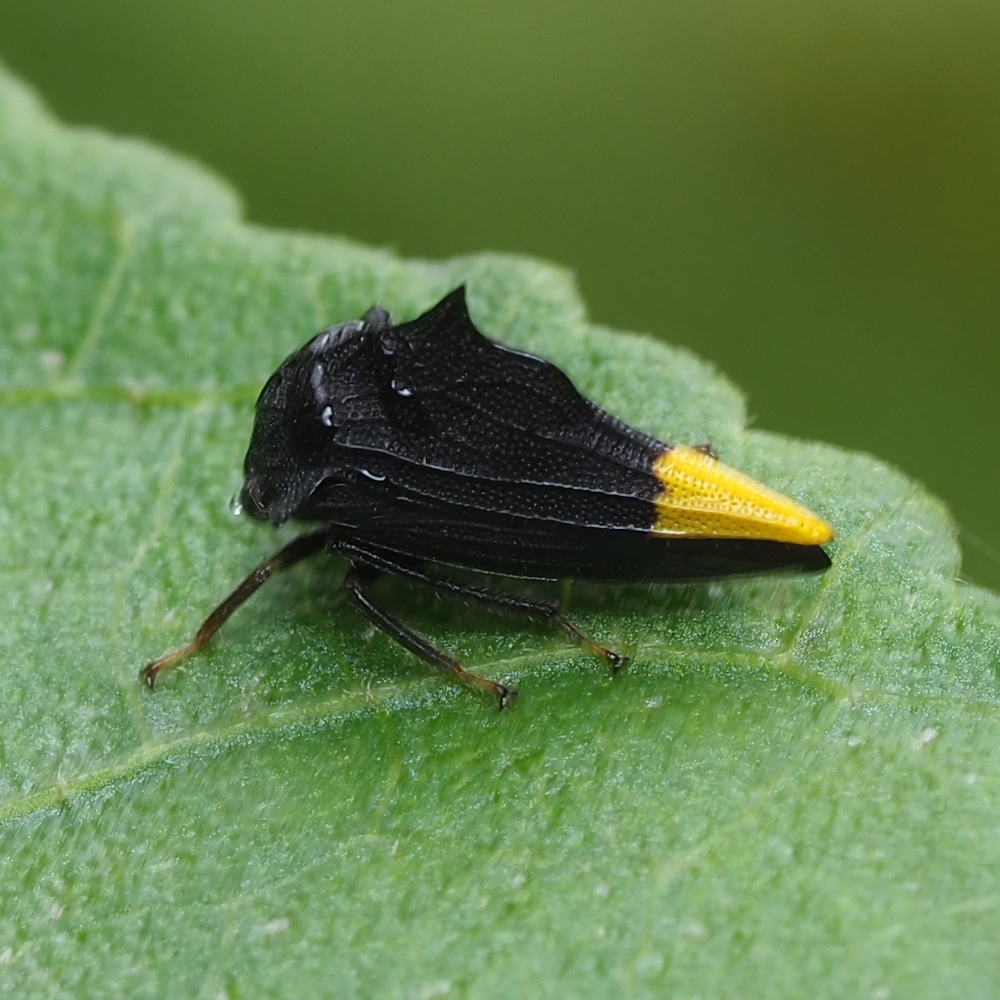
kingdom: Animalia
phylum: Arthropoda
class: Insecta
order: Hemiptera
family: Membracidae
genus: Ennya
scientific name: Ennya chrysura
